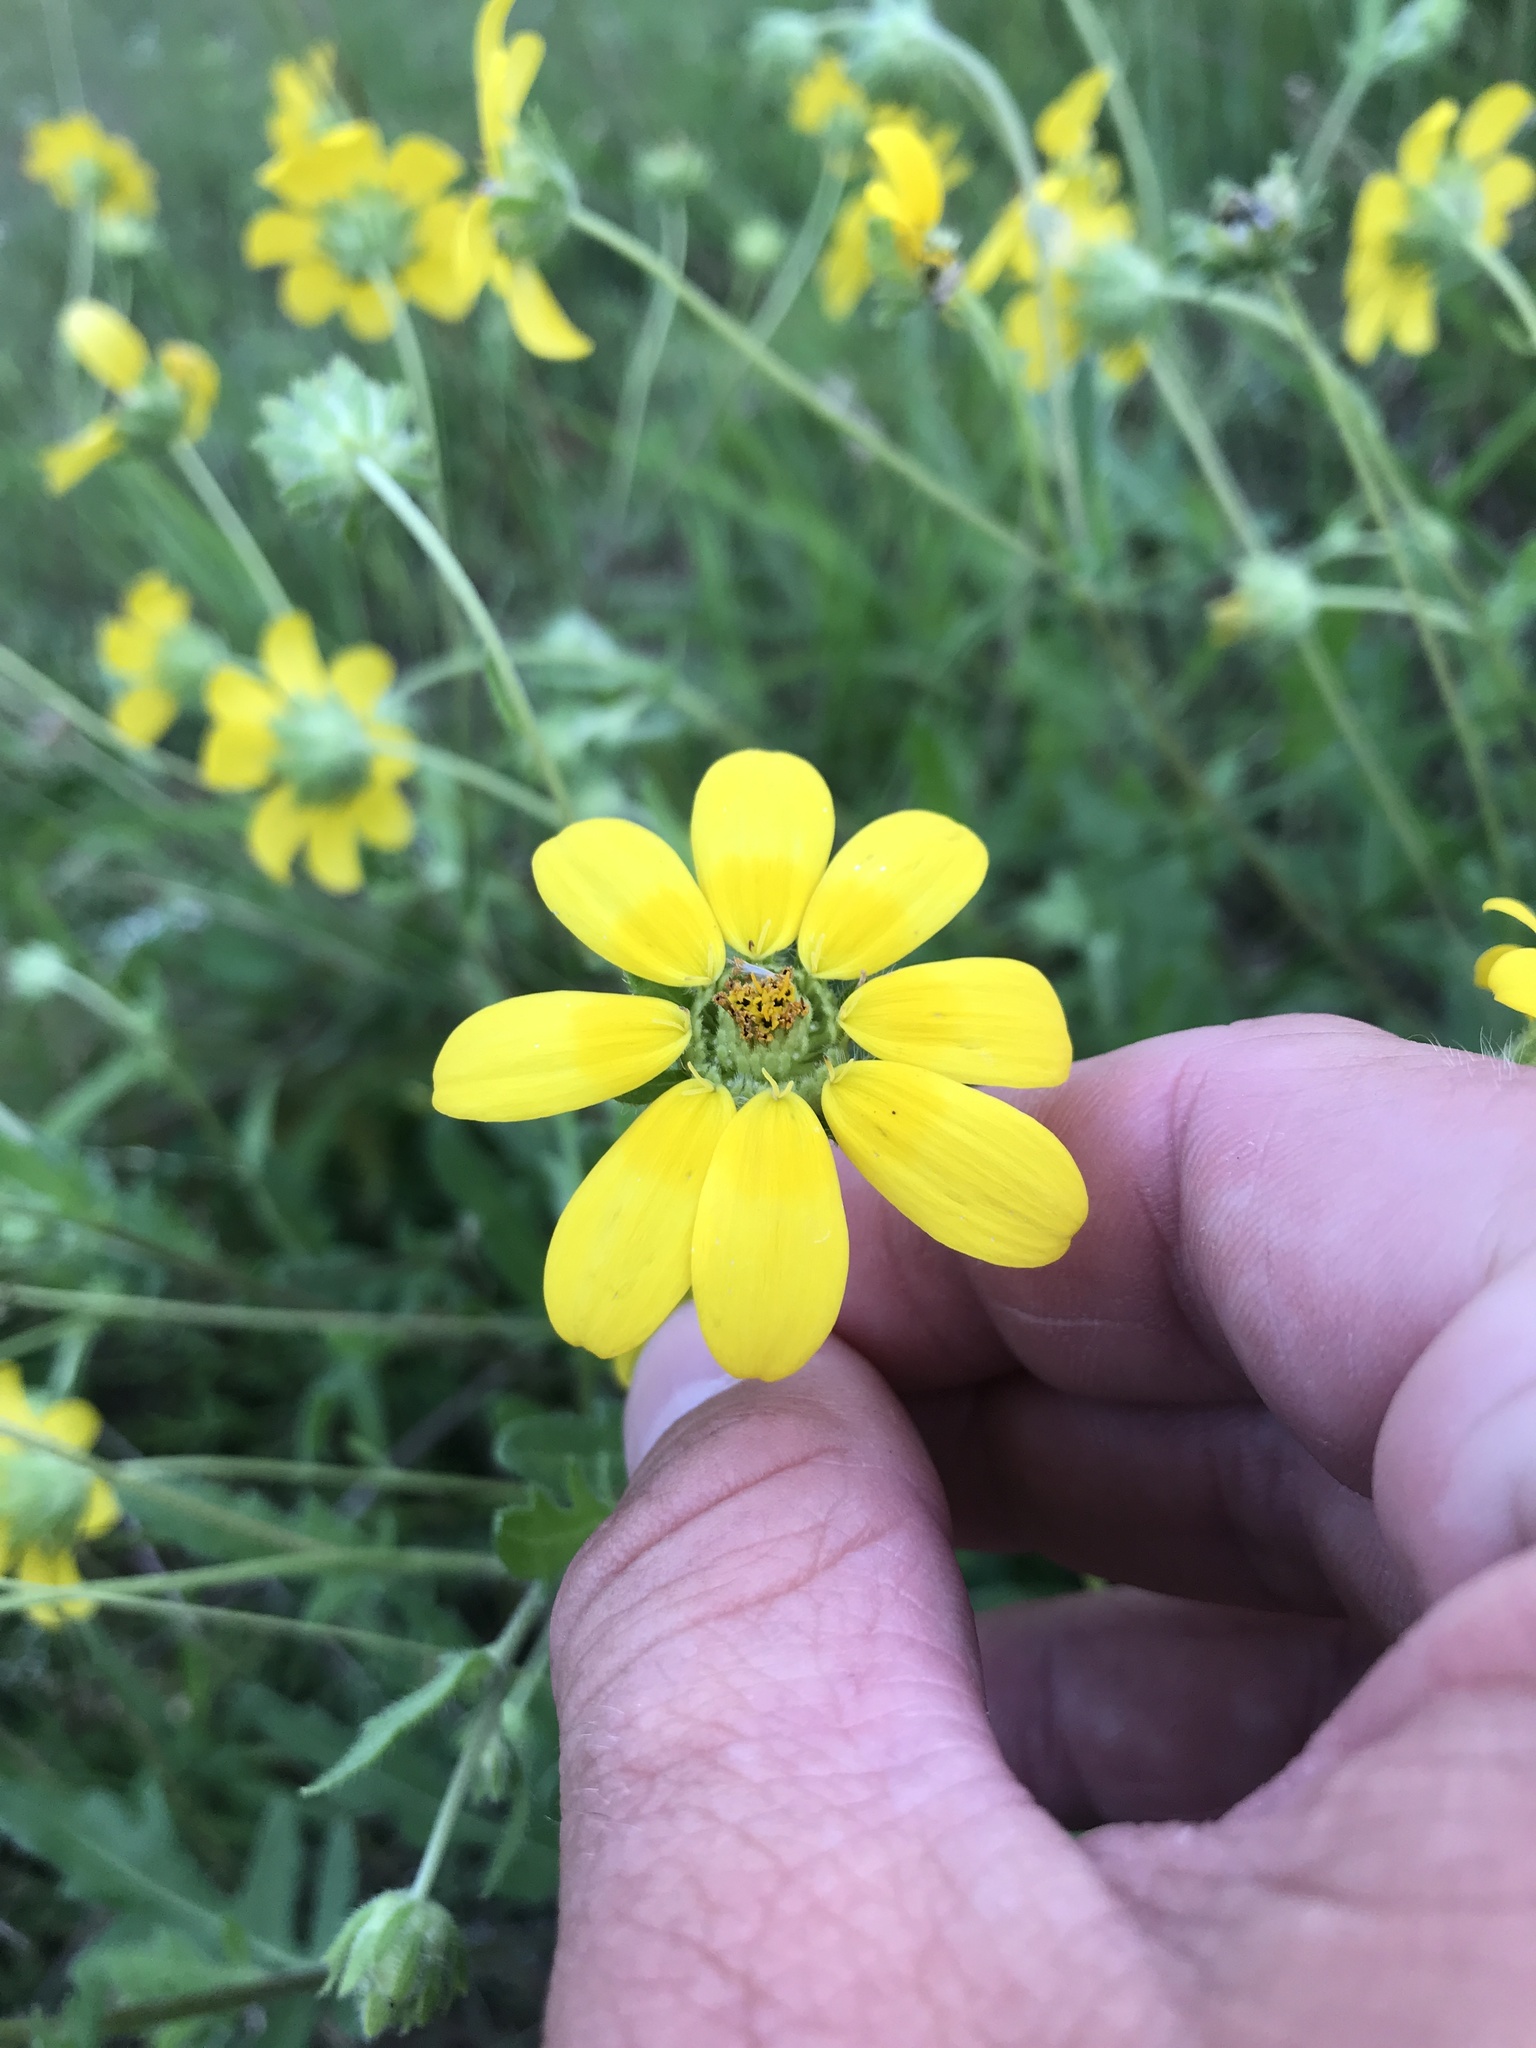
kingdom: Plantae
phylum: Tracheophyta
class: Magnoliopsida
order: Asterales
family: Asteraceae
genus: Engelmannia
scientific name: Engelmannia peristenia
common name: Engelmann's daisy
